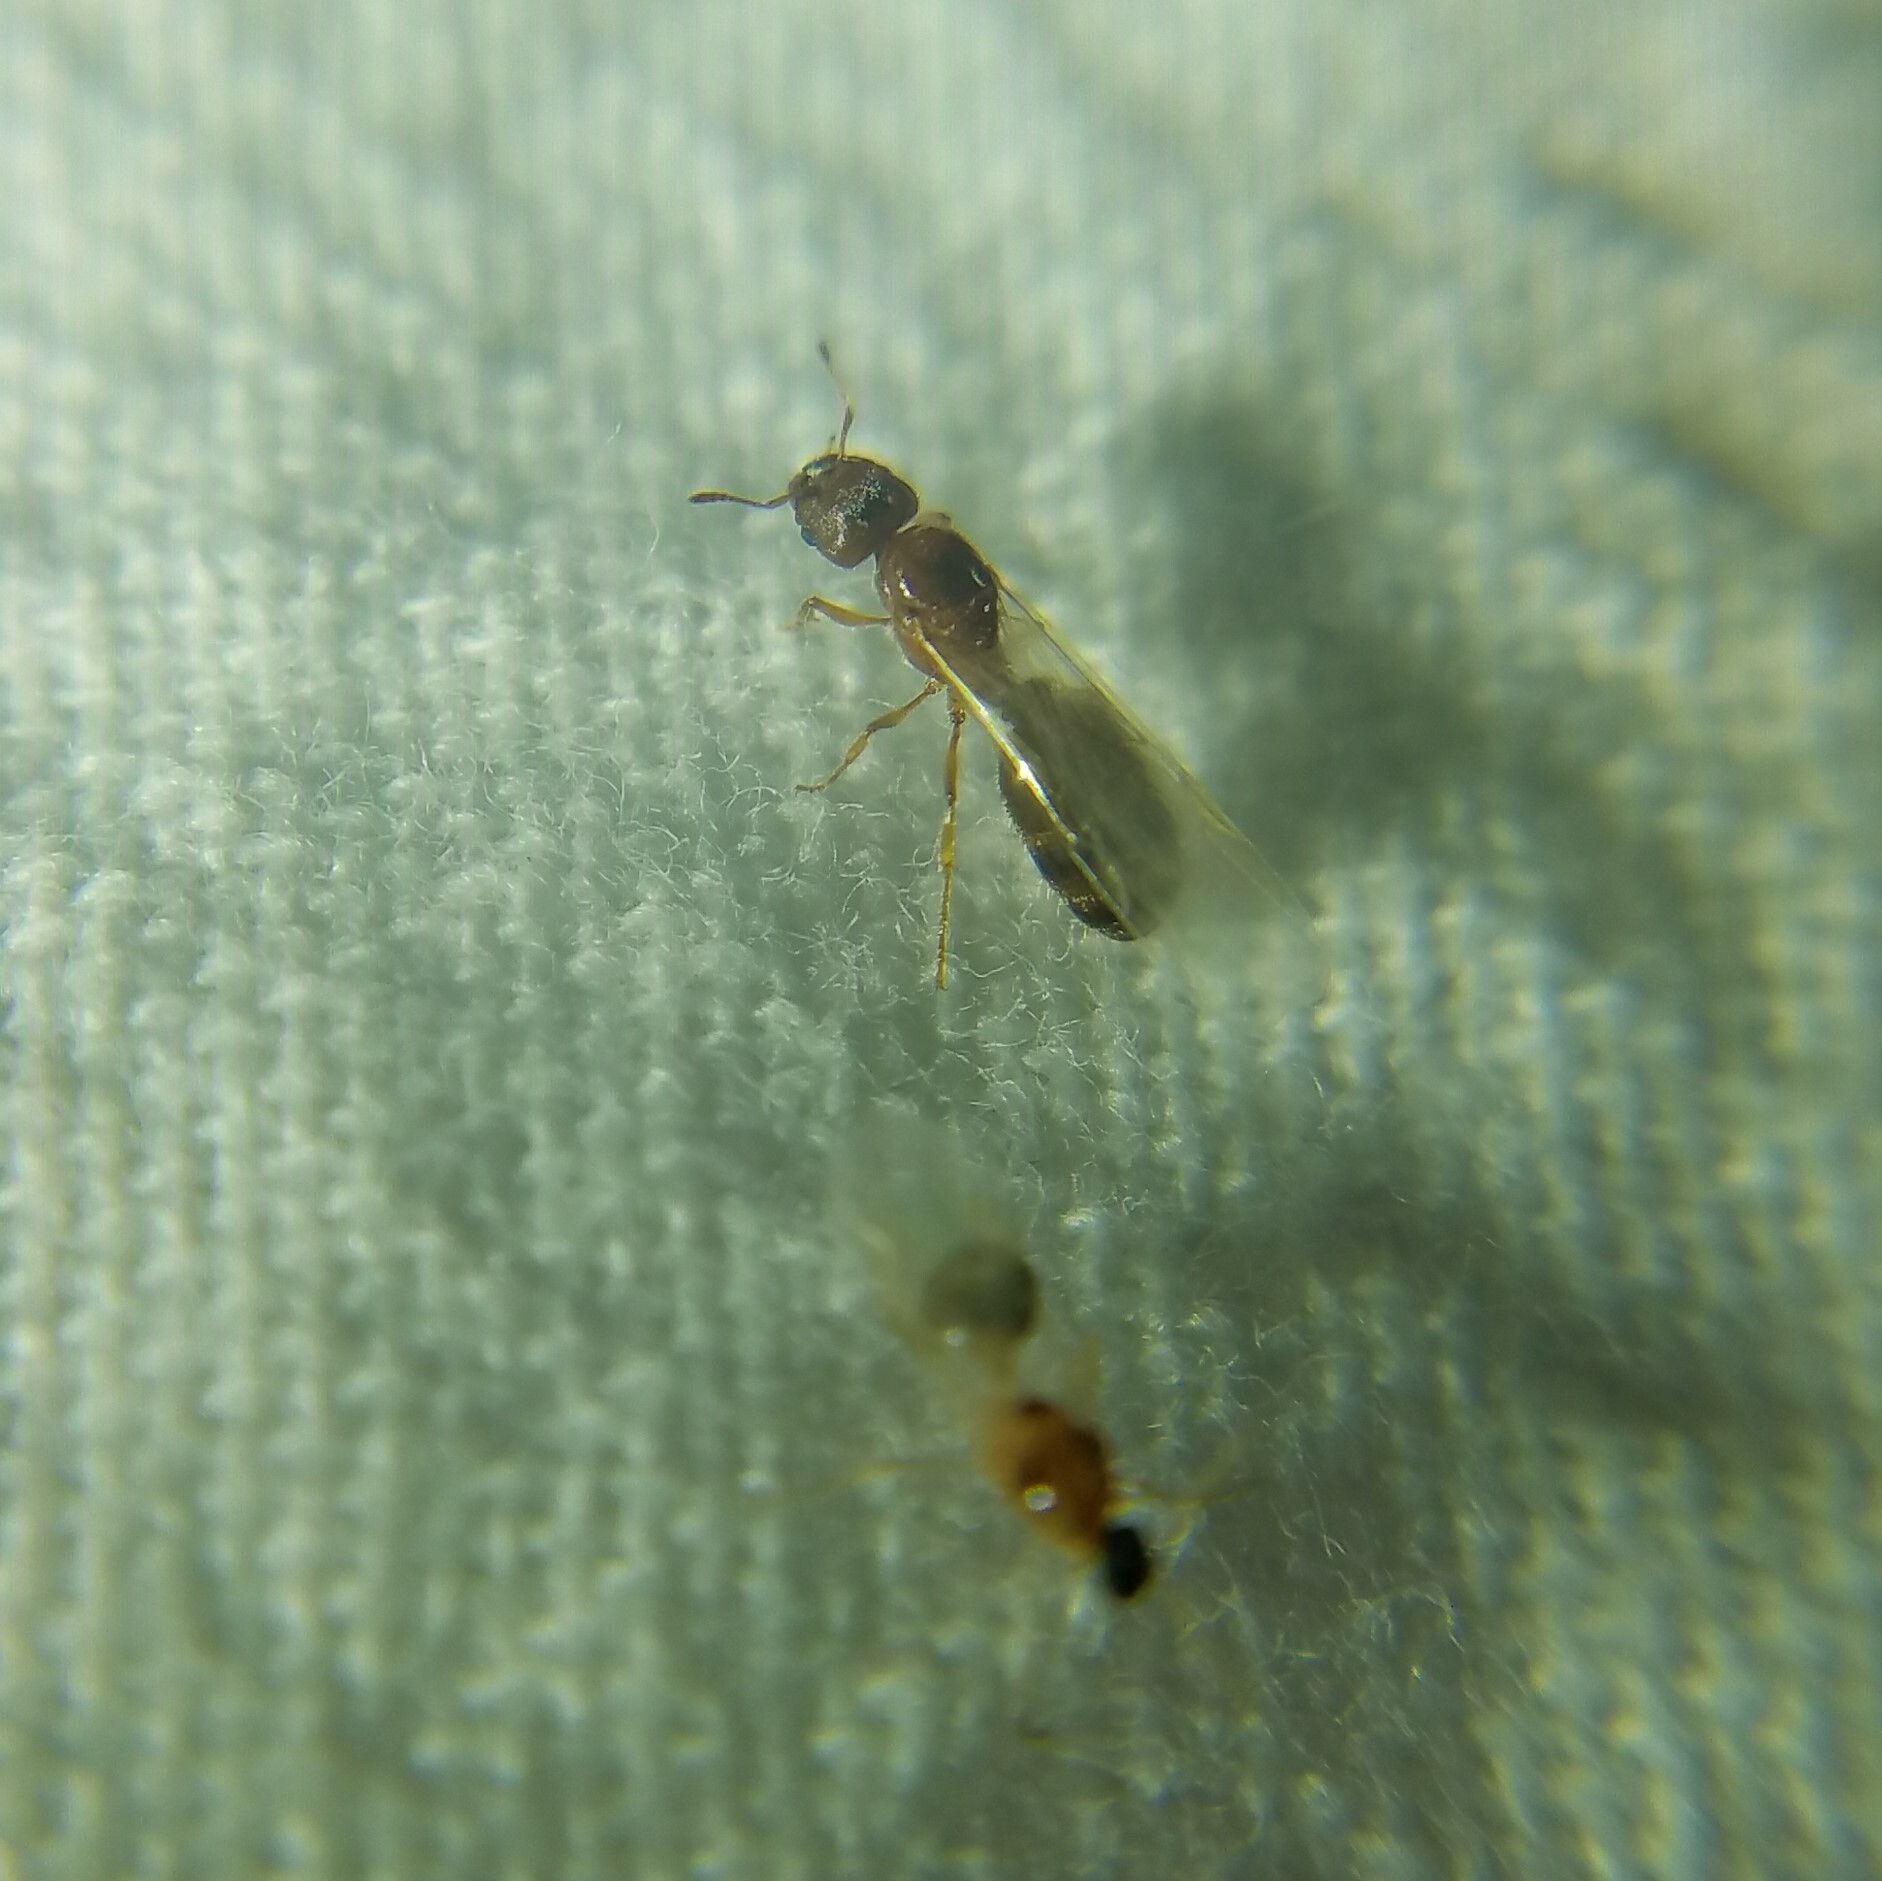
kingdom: Animalia
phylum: Arthropoda
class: Insecta
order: Hymenoptera
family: Formicidae
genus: Pheidole
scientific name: Pheidole bicarinata
